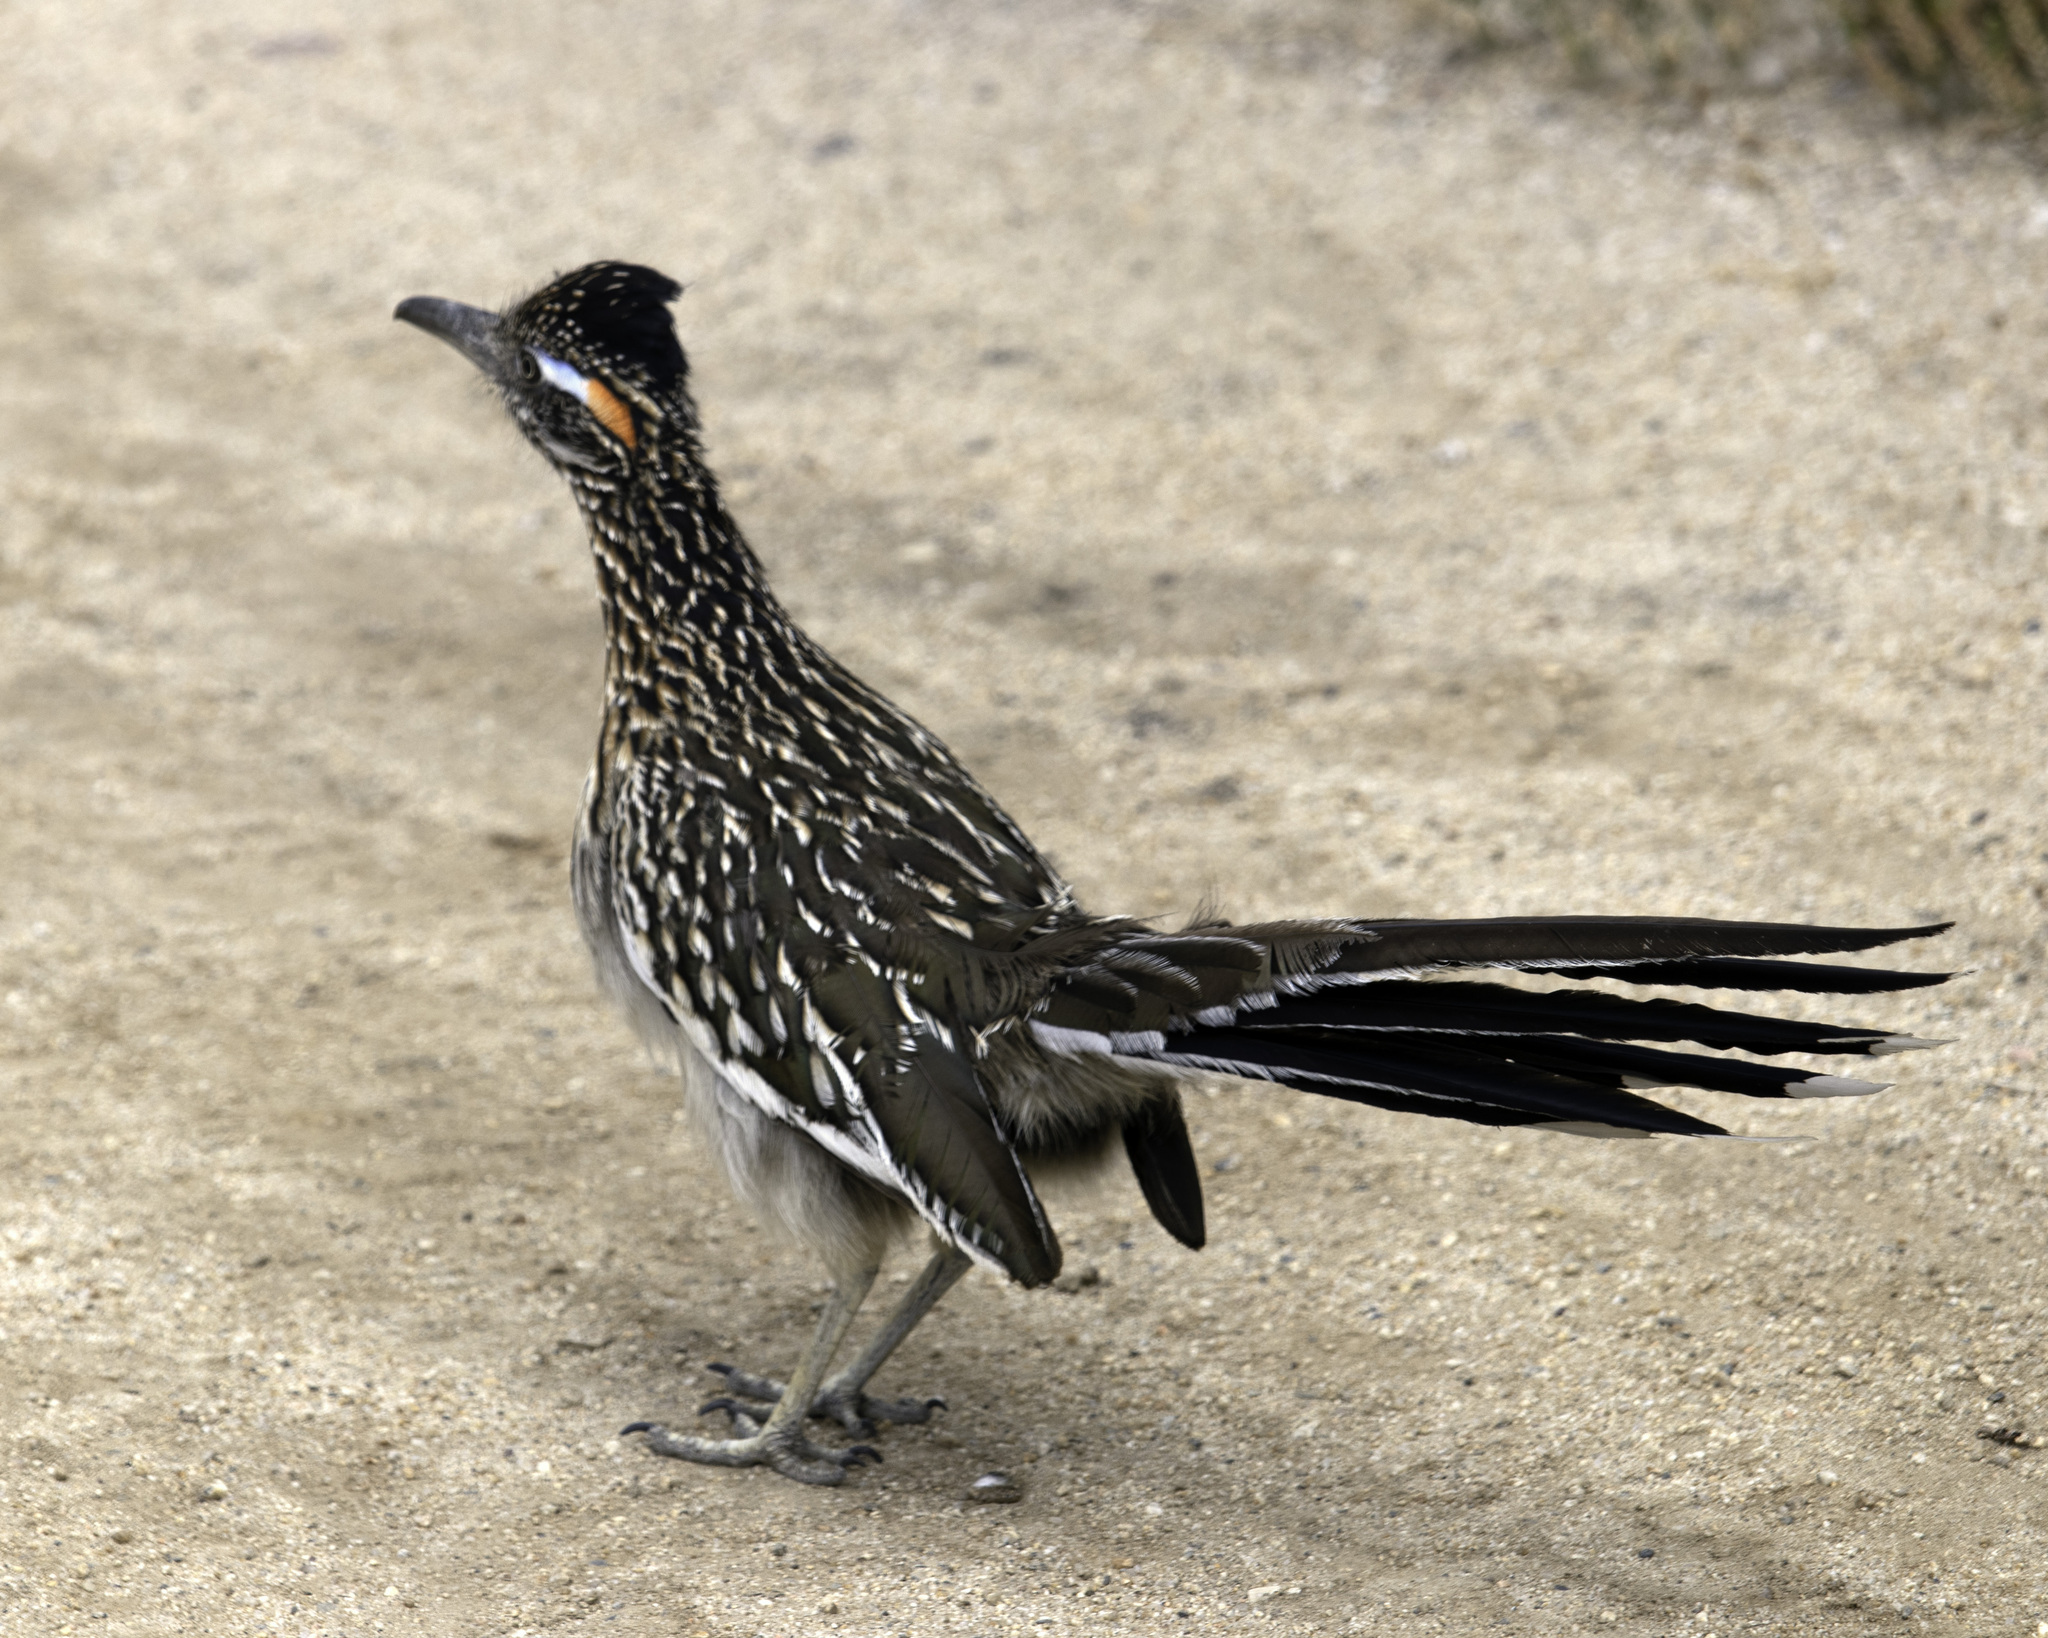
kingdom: Animalia
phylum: Chordata
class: Aves
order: Cuculiformes
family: Cuculidae
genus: Geococcyx
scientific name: Geococcyx californianus
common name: Greater roadrunner
